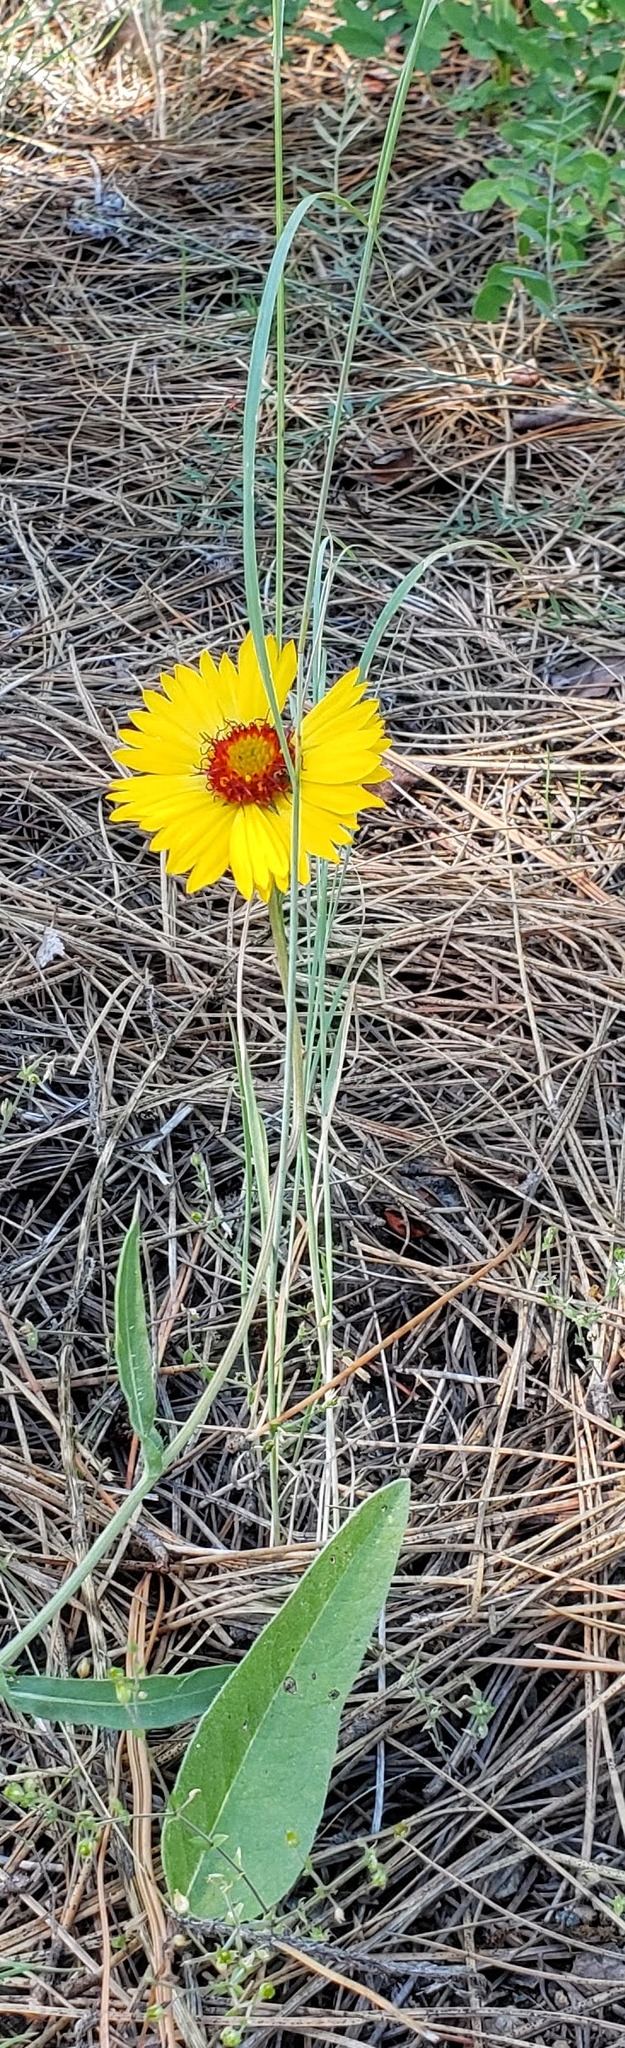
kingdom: Plantae
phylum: Tracheophyta
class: Magnoliopsida
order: Asterales
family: Asteraceae
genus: Gaillardia
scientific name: Gaillardia aristata
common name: Blanket-flower
